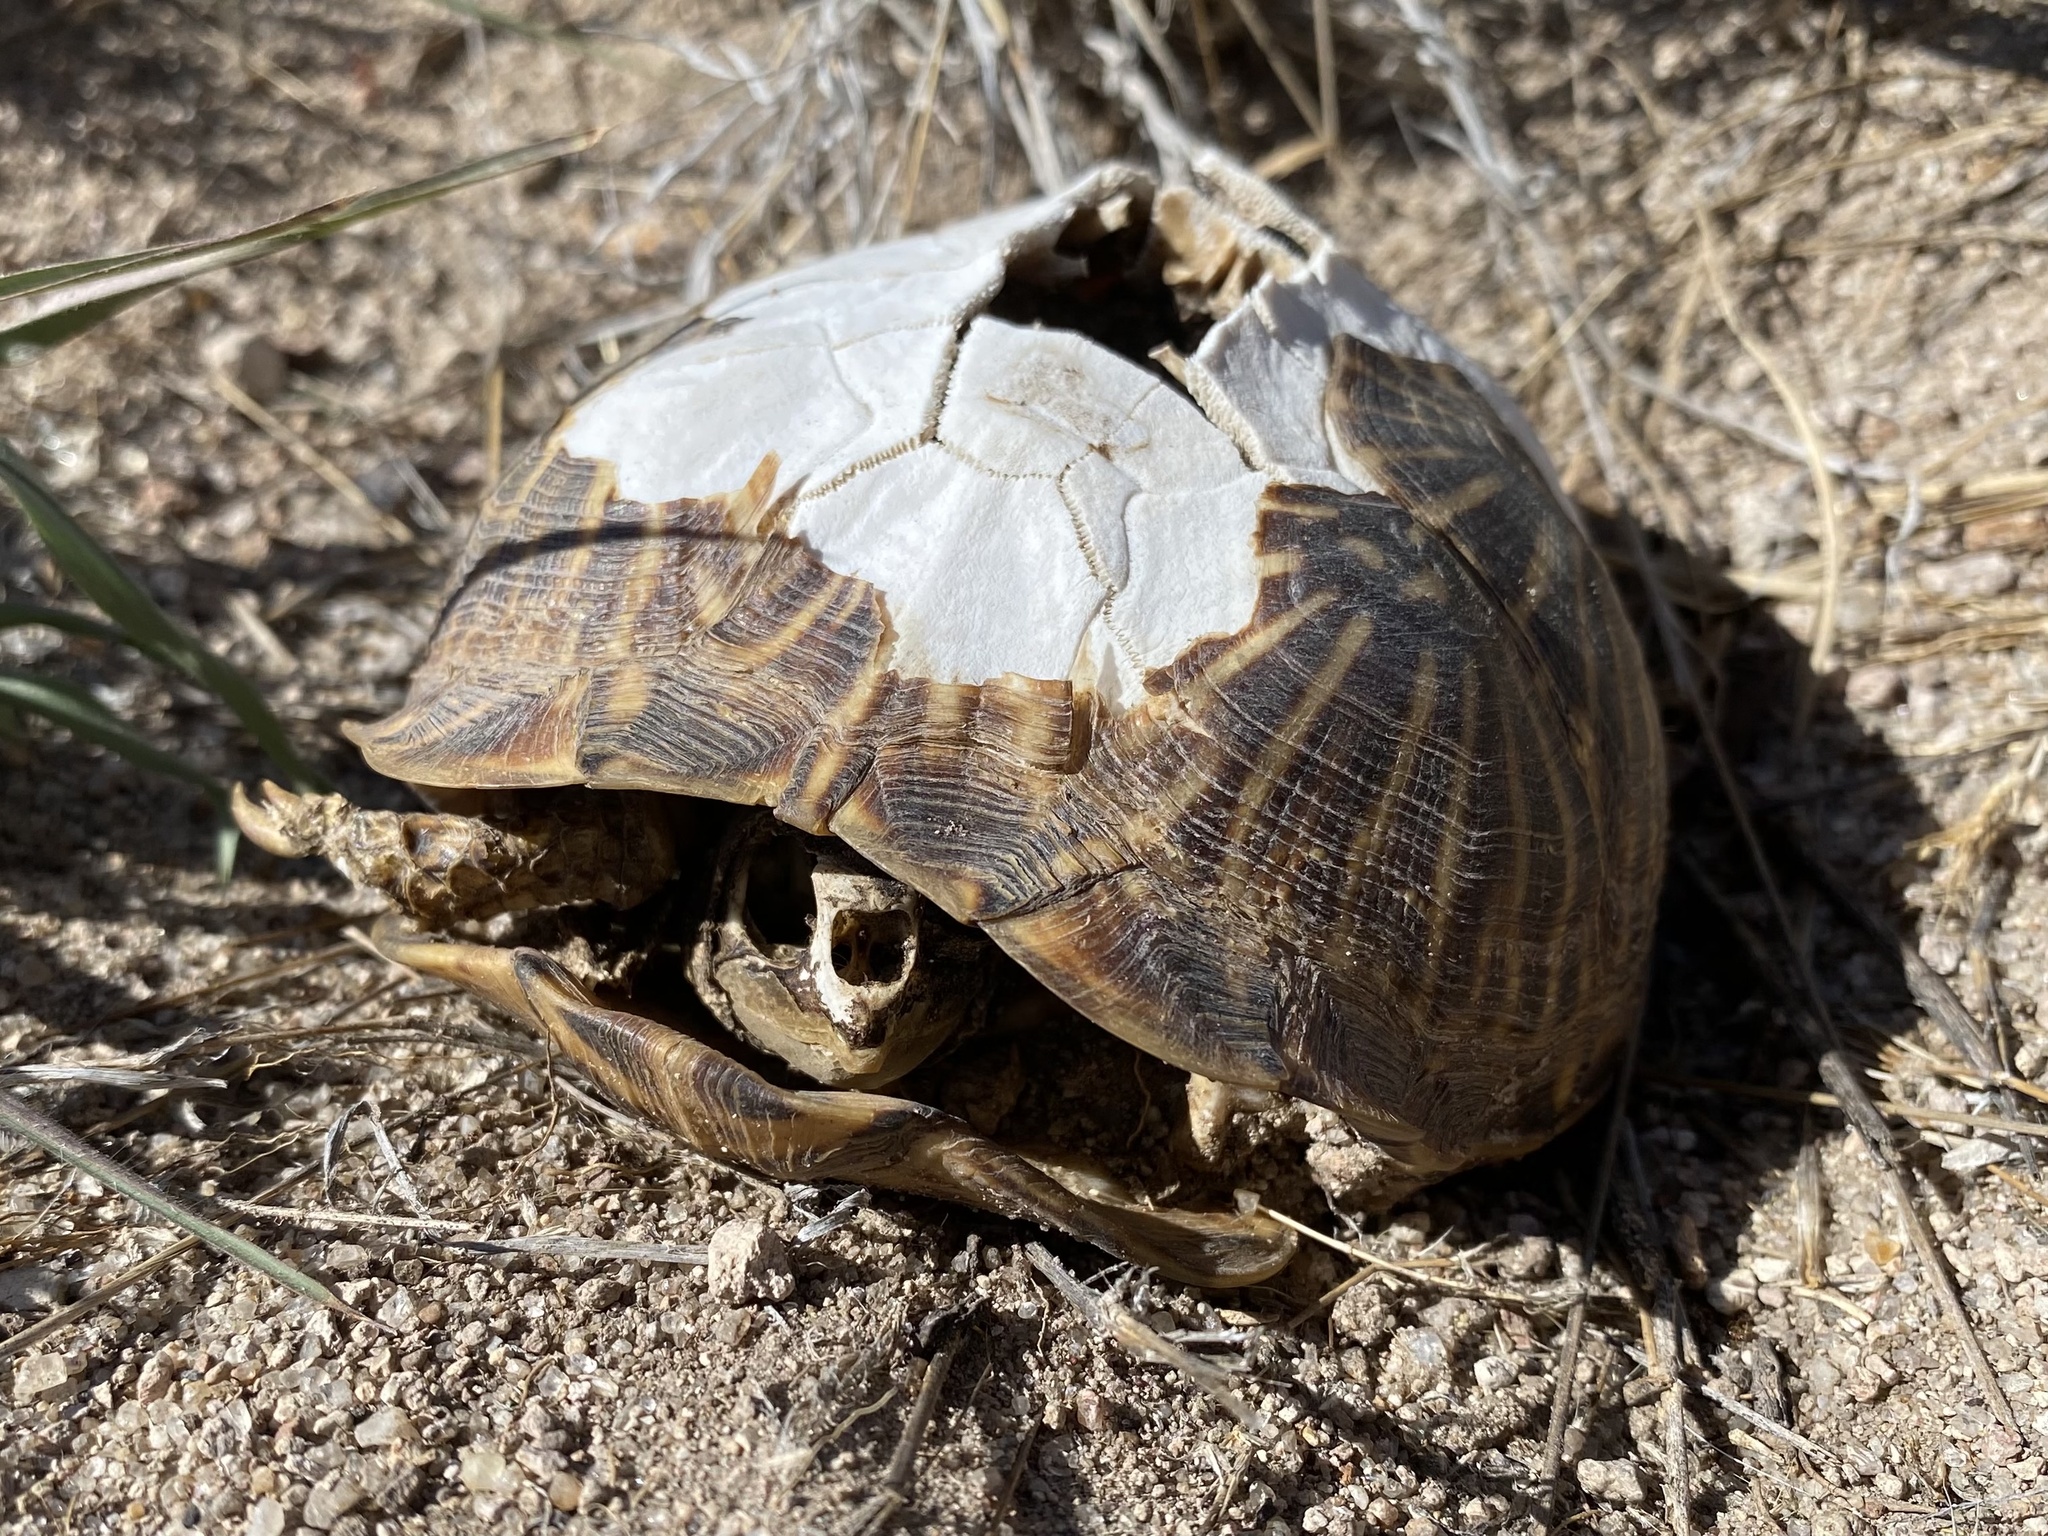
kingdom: Animalia
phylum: Chordata
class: Testudines
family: Emydidae
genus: Terrapene
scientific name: Terrapene ornata
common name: Western box turtle
